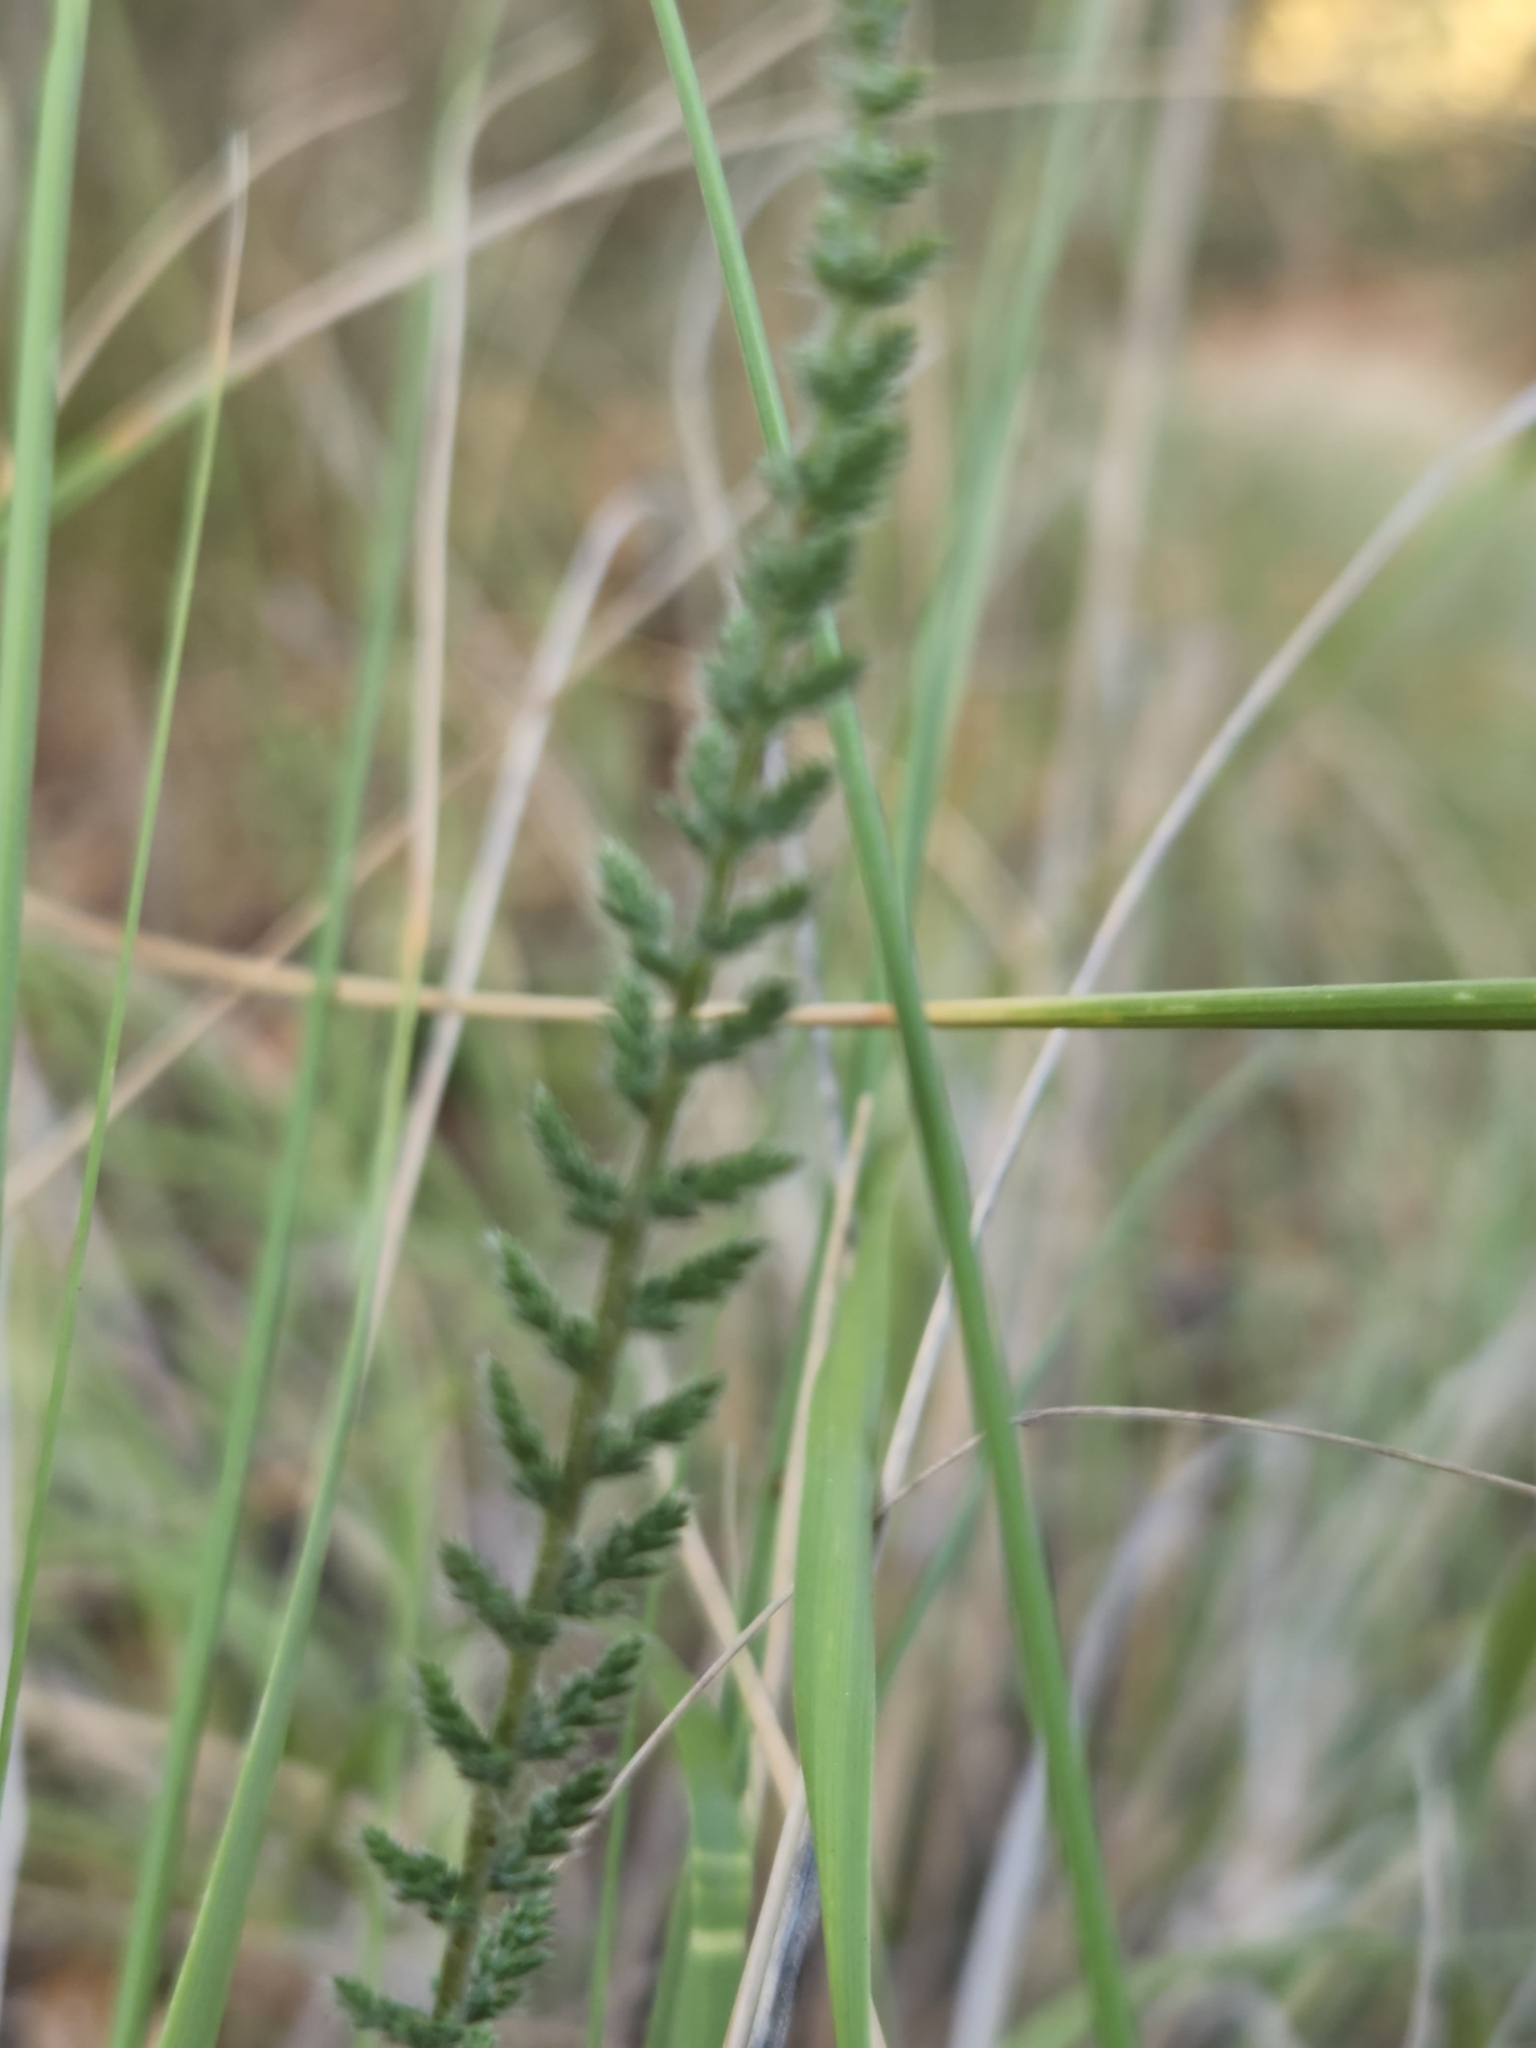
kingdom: Plantae
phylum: Tracheophyta
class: Magnoliopsida
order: Asterales
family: Asteraceae
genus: Achillea
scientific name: Achillea millefolium
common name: Yarrow
